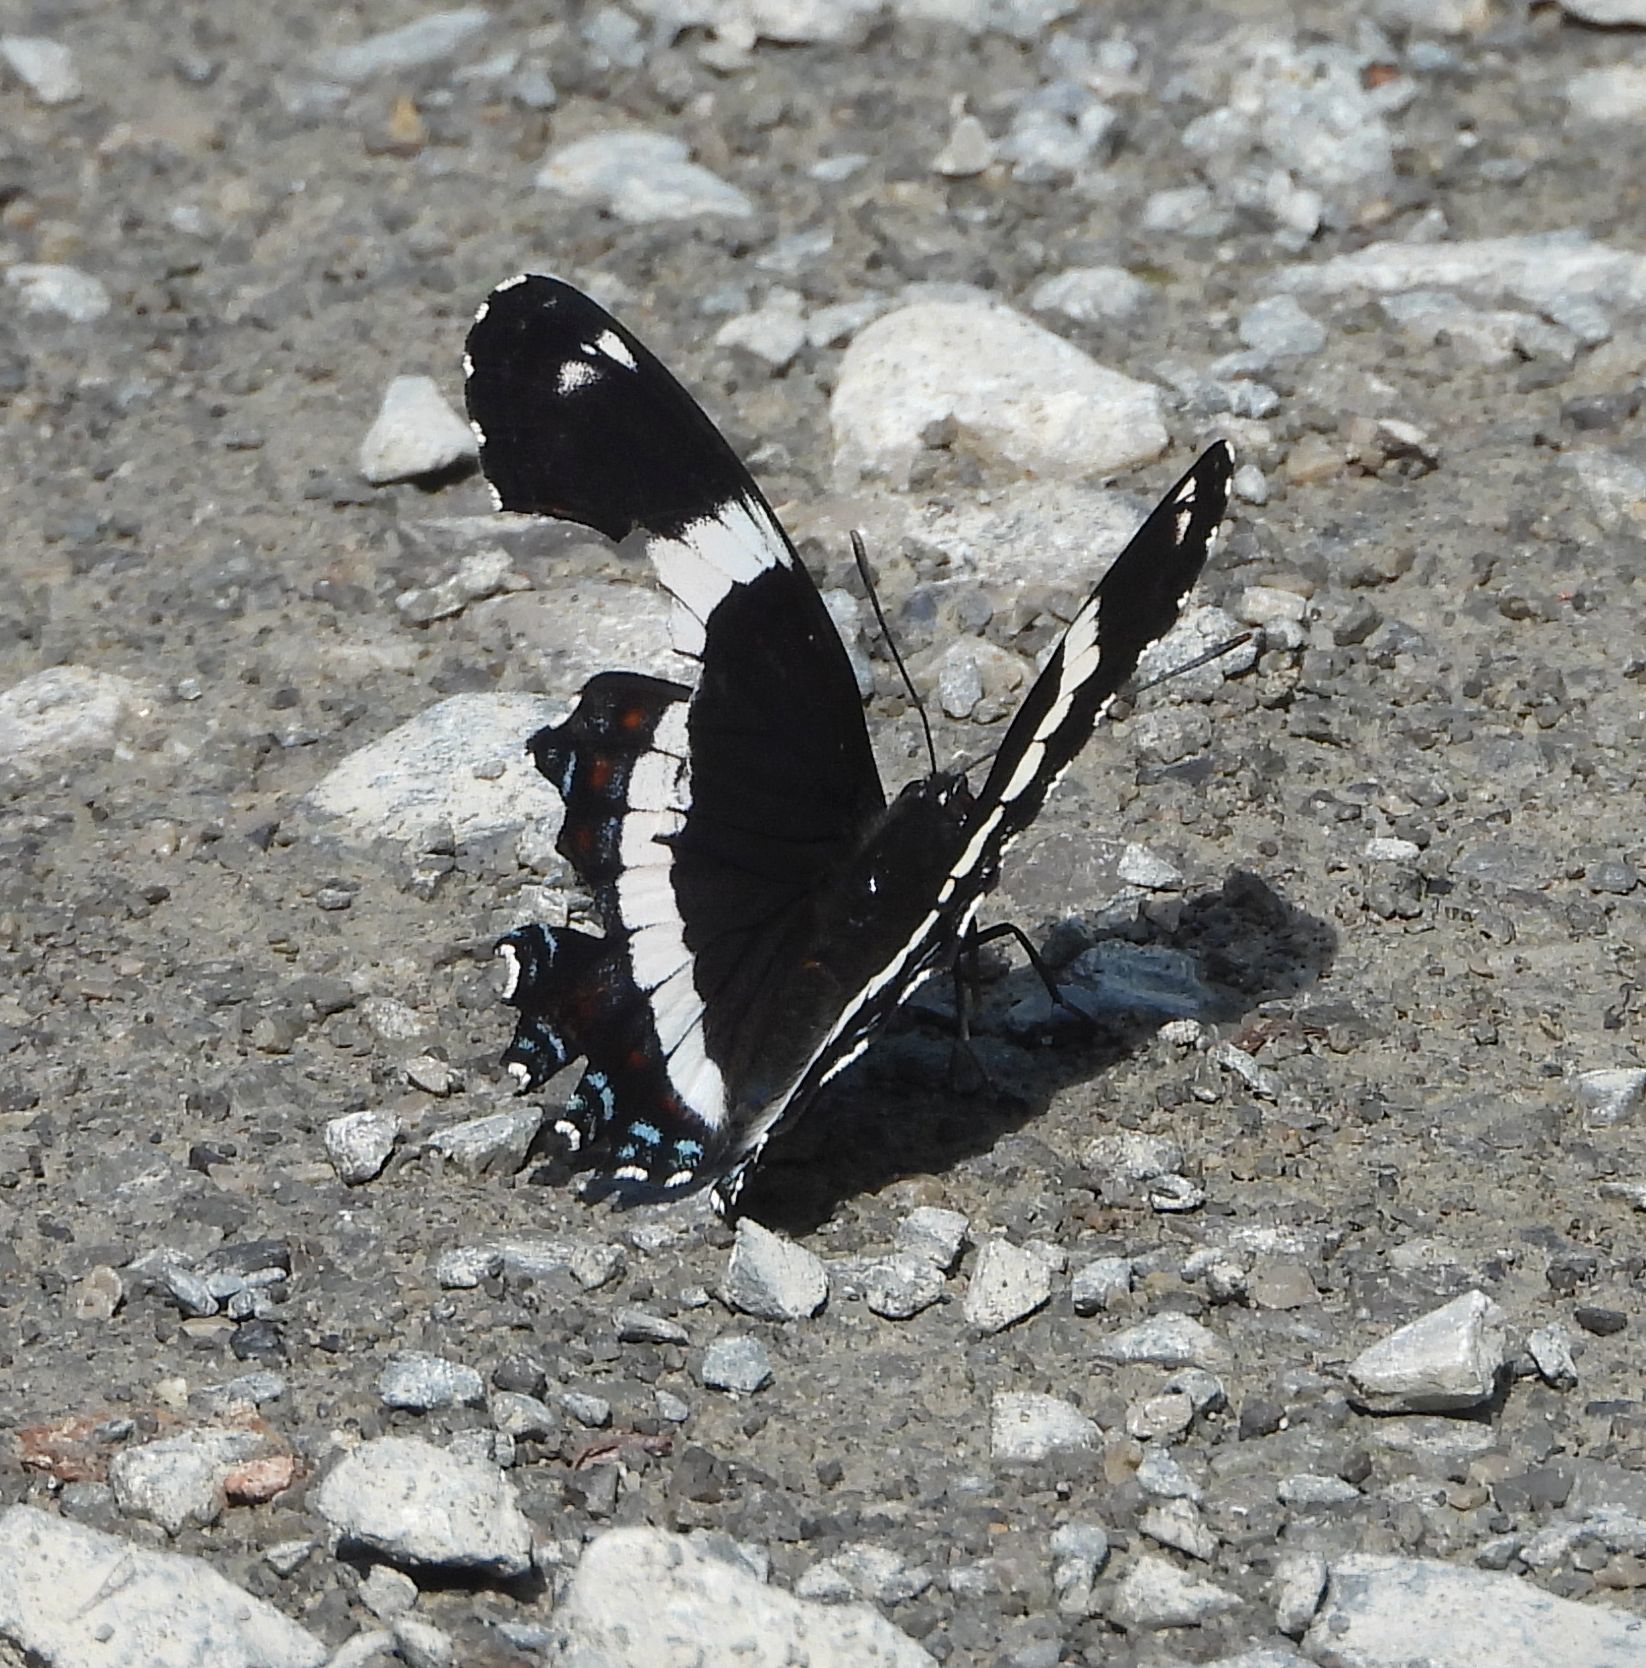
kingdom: Animalia
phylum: Arthropoda
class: Insecta
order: Lepidoptera
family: Nymphalidae
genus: Limenitis
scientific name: Limenitis arthemis
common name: Red-spotted admiral
